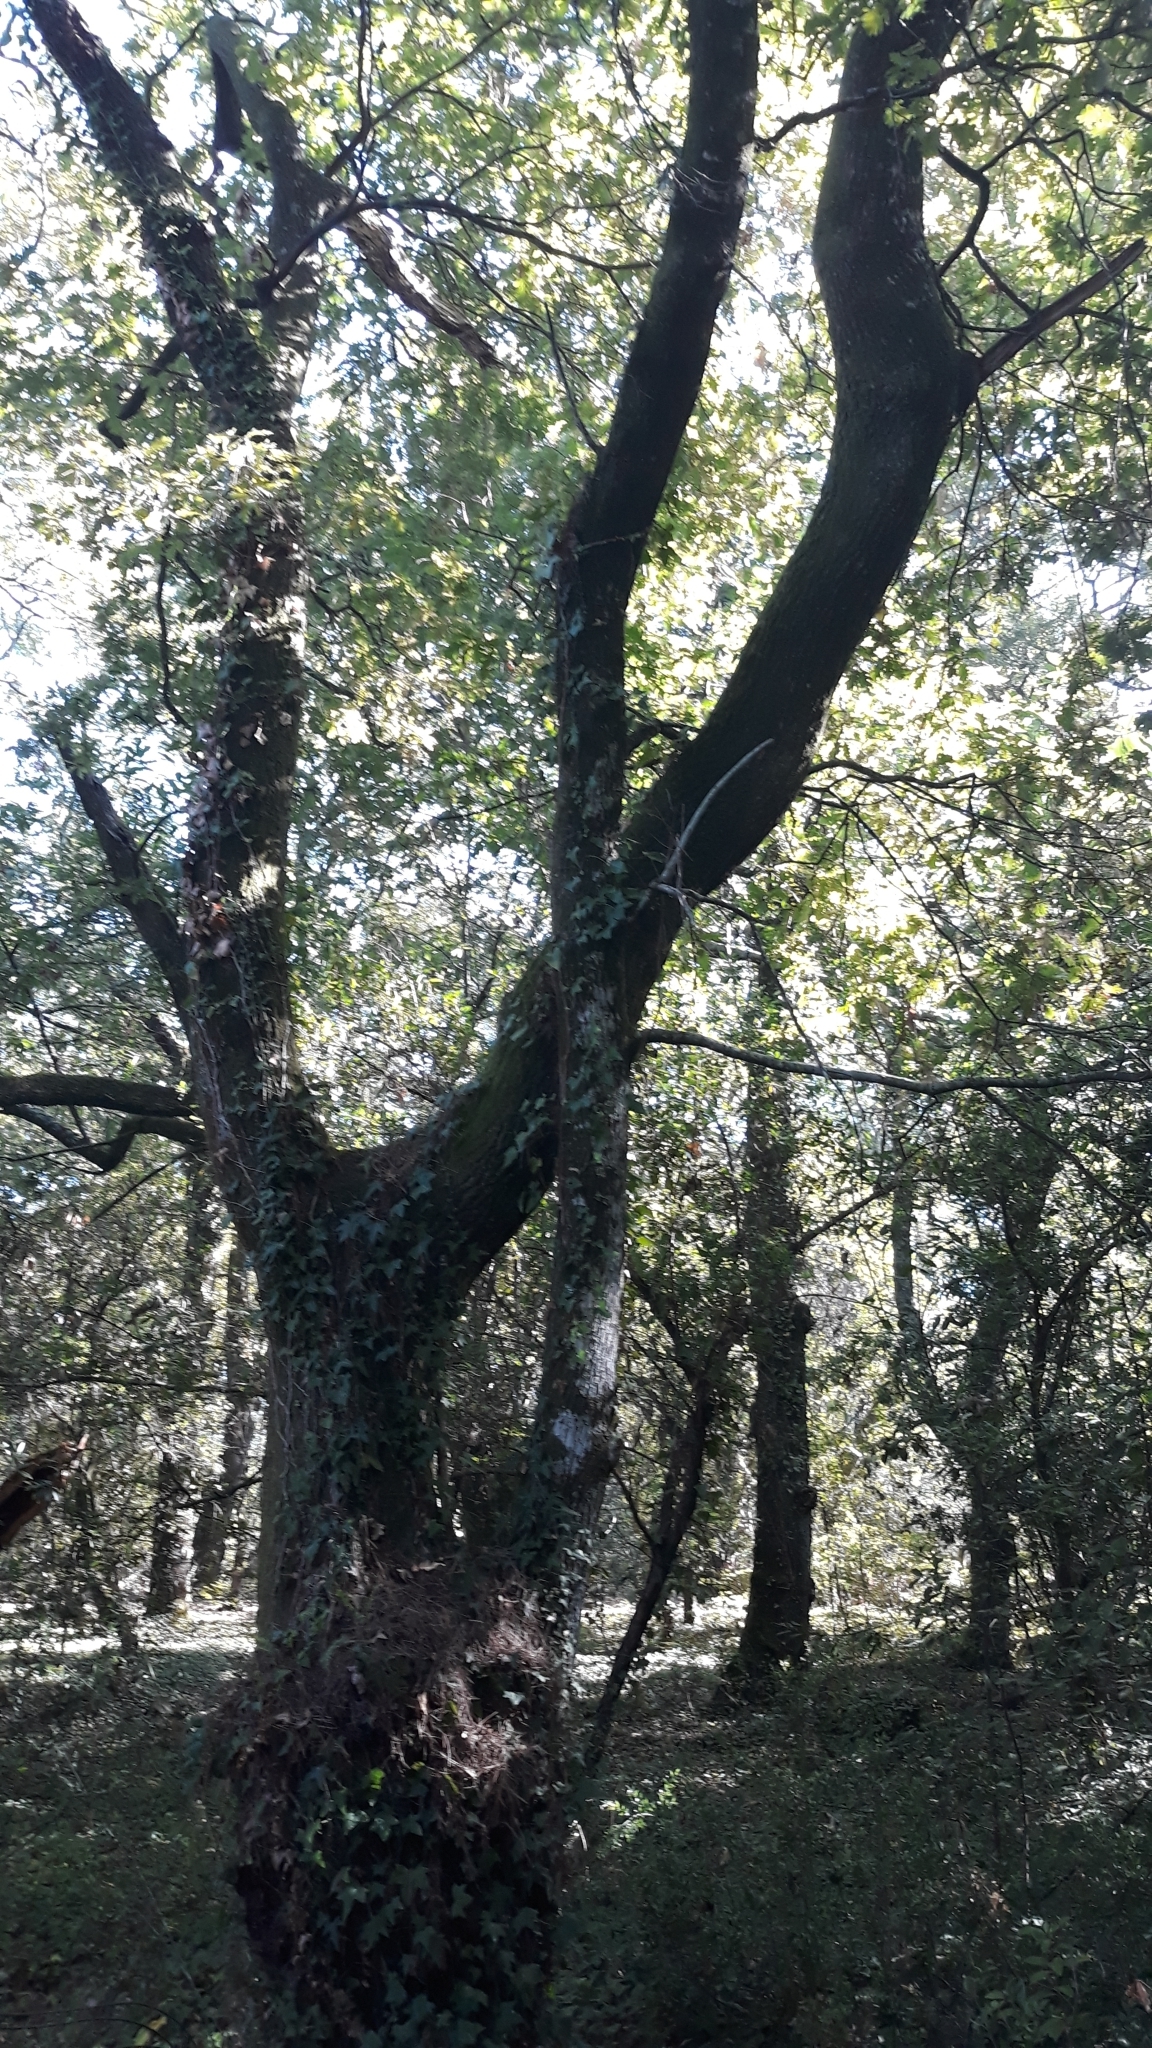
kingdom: Animalia
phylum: Arthropoda
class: Insecta
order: Hymenoptera
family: Cynipidae
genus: Andricus
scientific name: Andricus quercustozae
